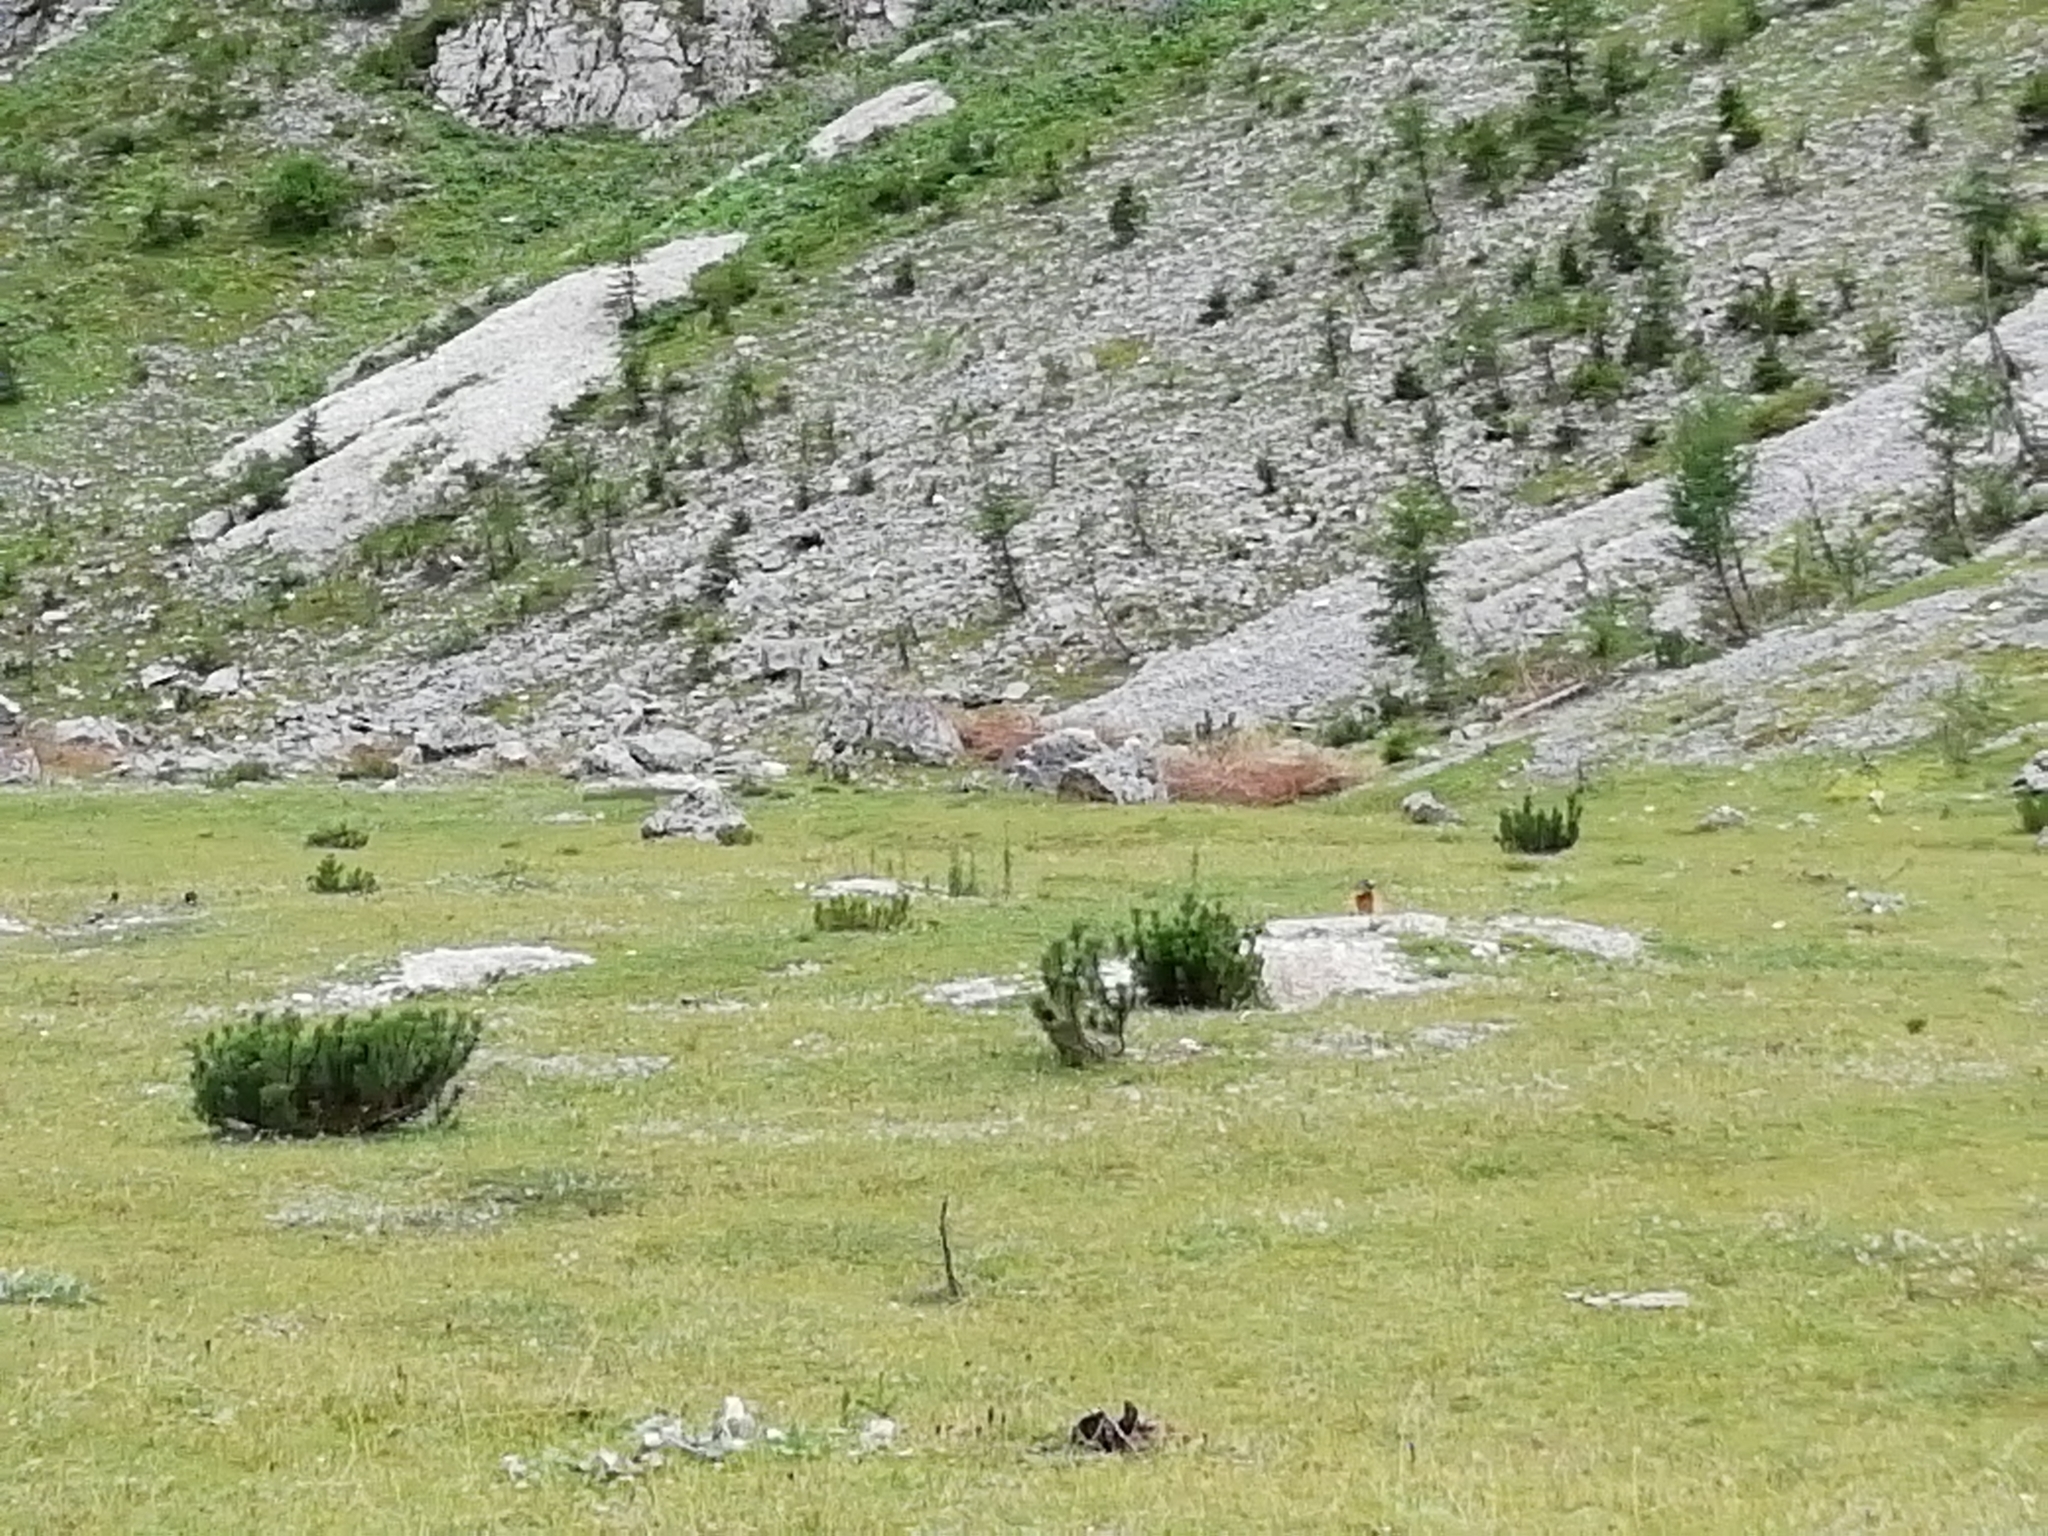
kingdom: Animalia
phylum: Chordata
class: Mammalia
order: Rodentia
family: Sciuridae
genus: Marmota
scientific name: Marmota marmota
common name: Alpine marmot
